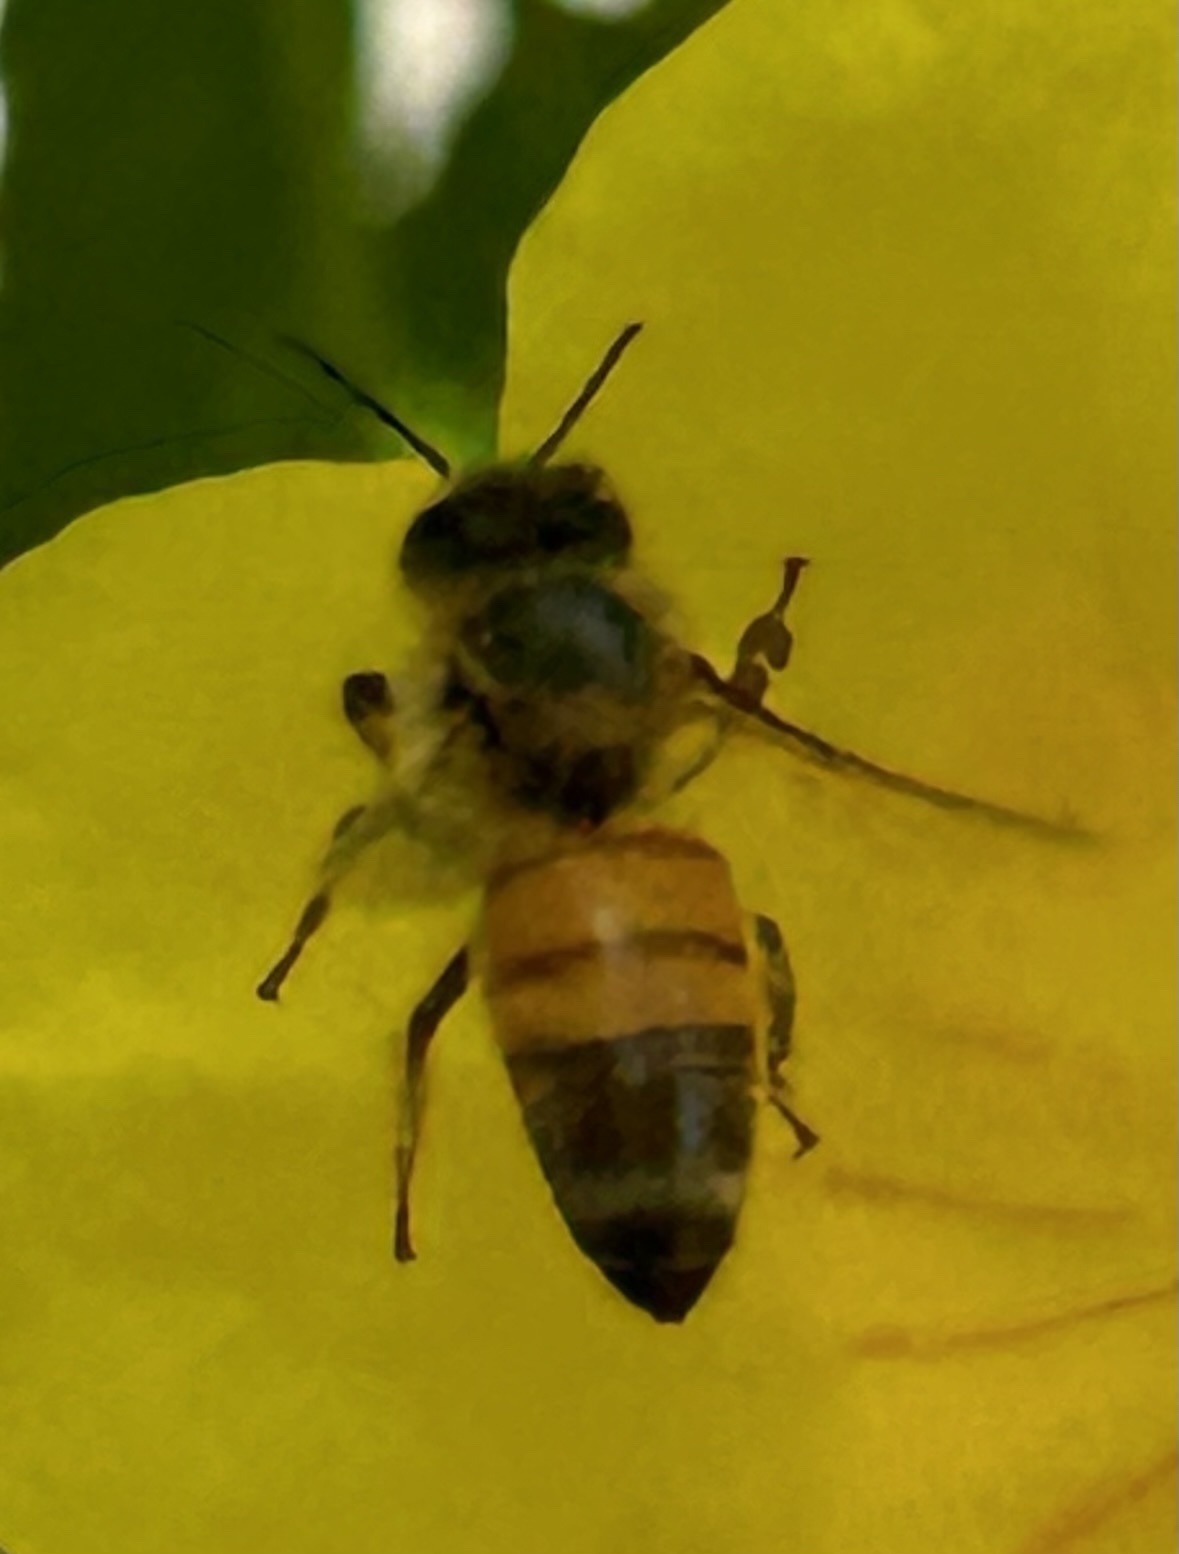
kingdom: Animalia
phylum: Arthropoda
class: Insecta
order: Hymenoptera
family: Apidae
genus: Apis
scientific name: Apis mellifera
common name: Honey bee
